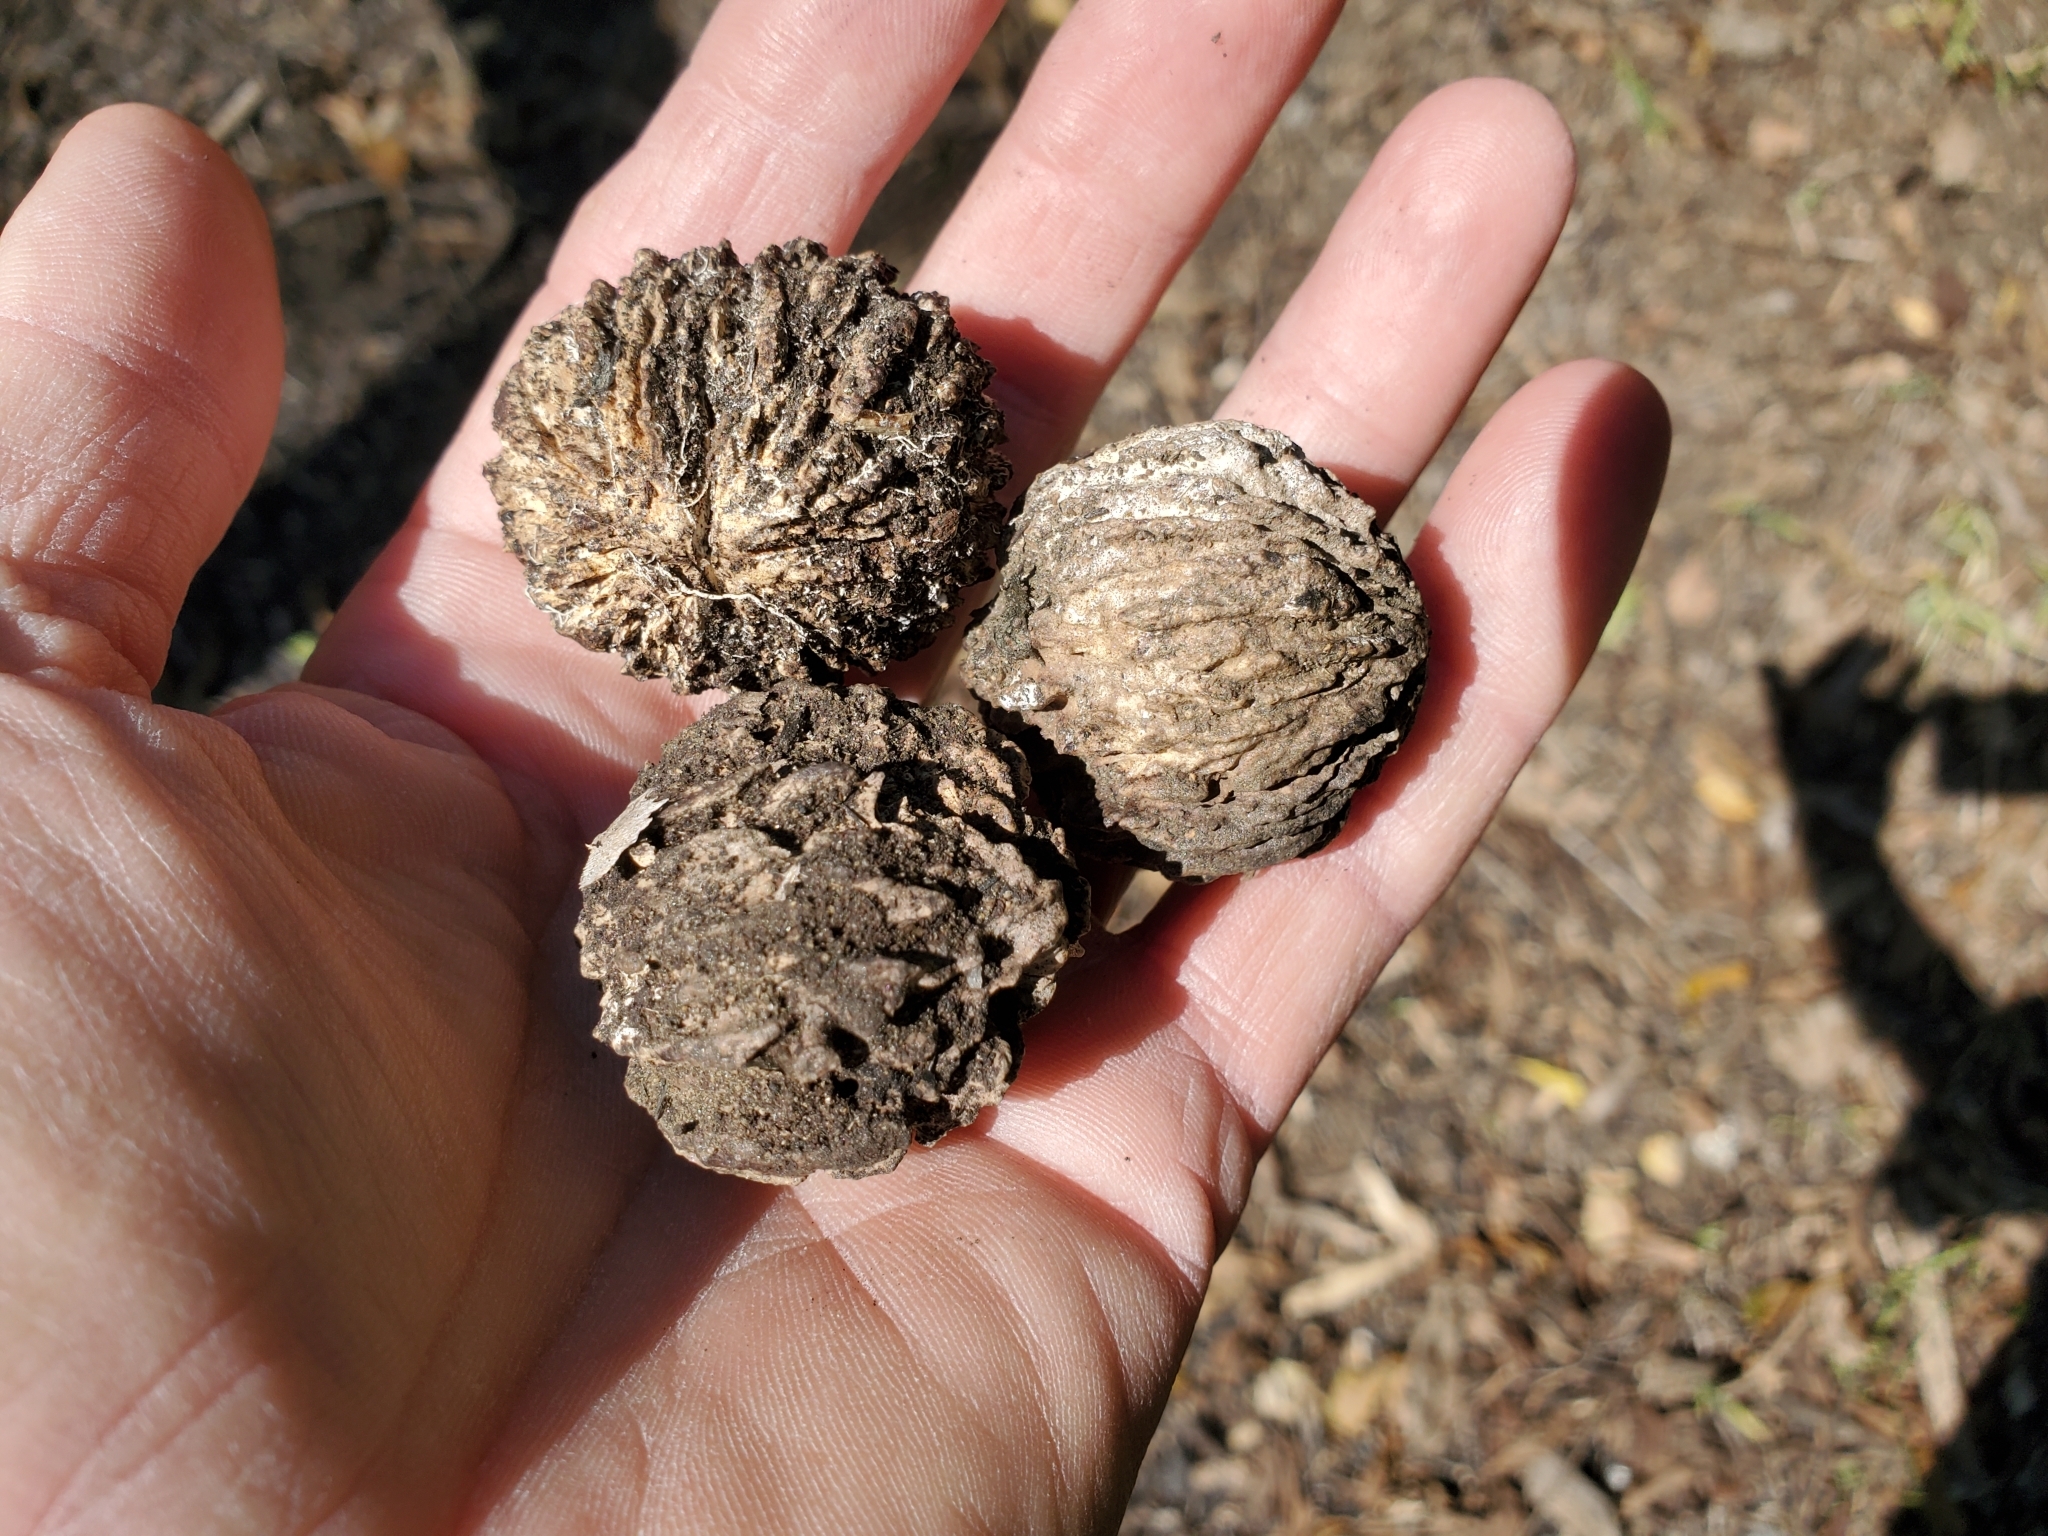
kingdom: Plantae
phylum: Tracheophyta
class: Magnoliopsida
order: Fagales
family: Juglandaceae
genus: Juglans
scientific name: Juglans nigra
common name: Black walnut
